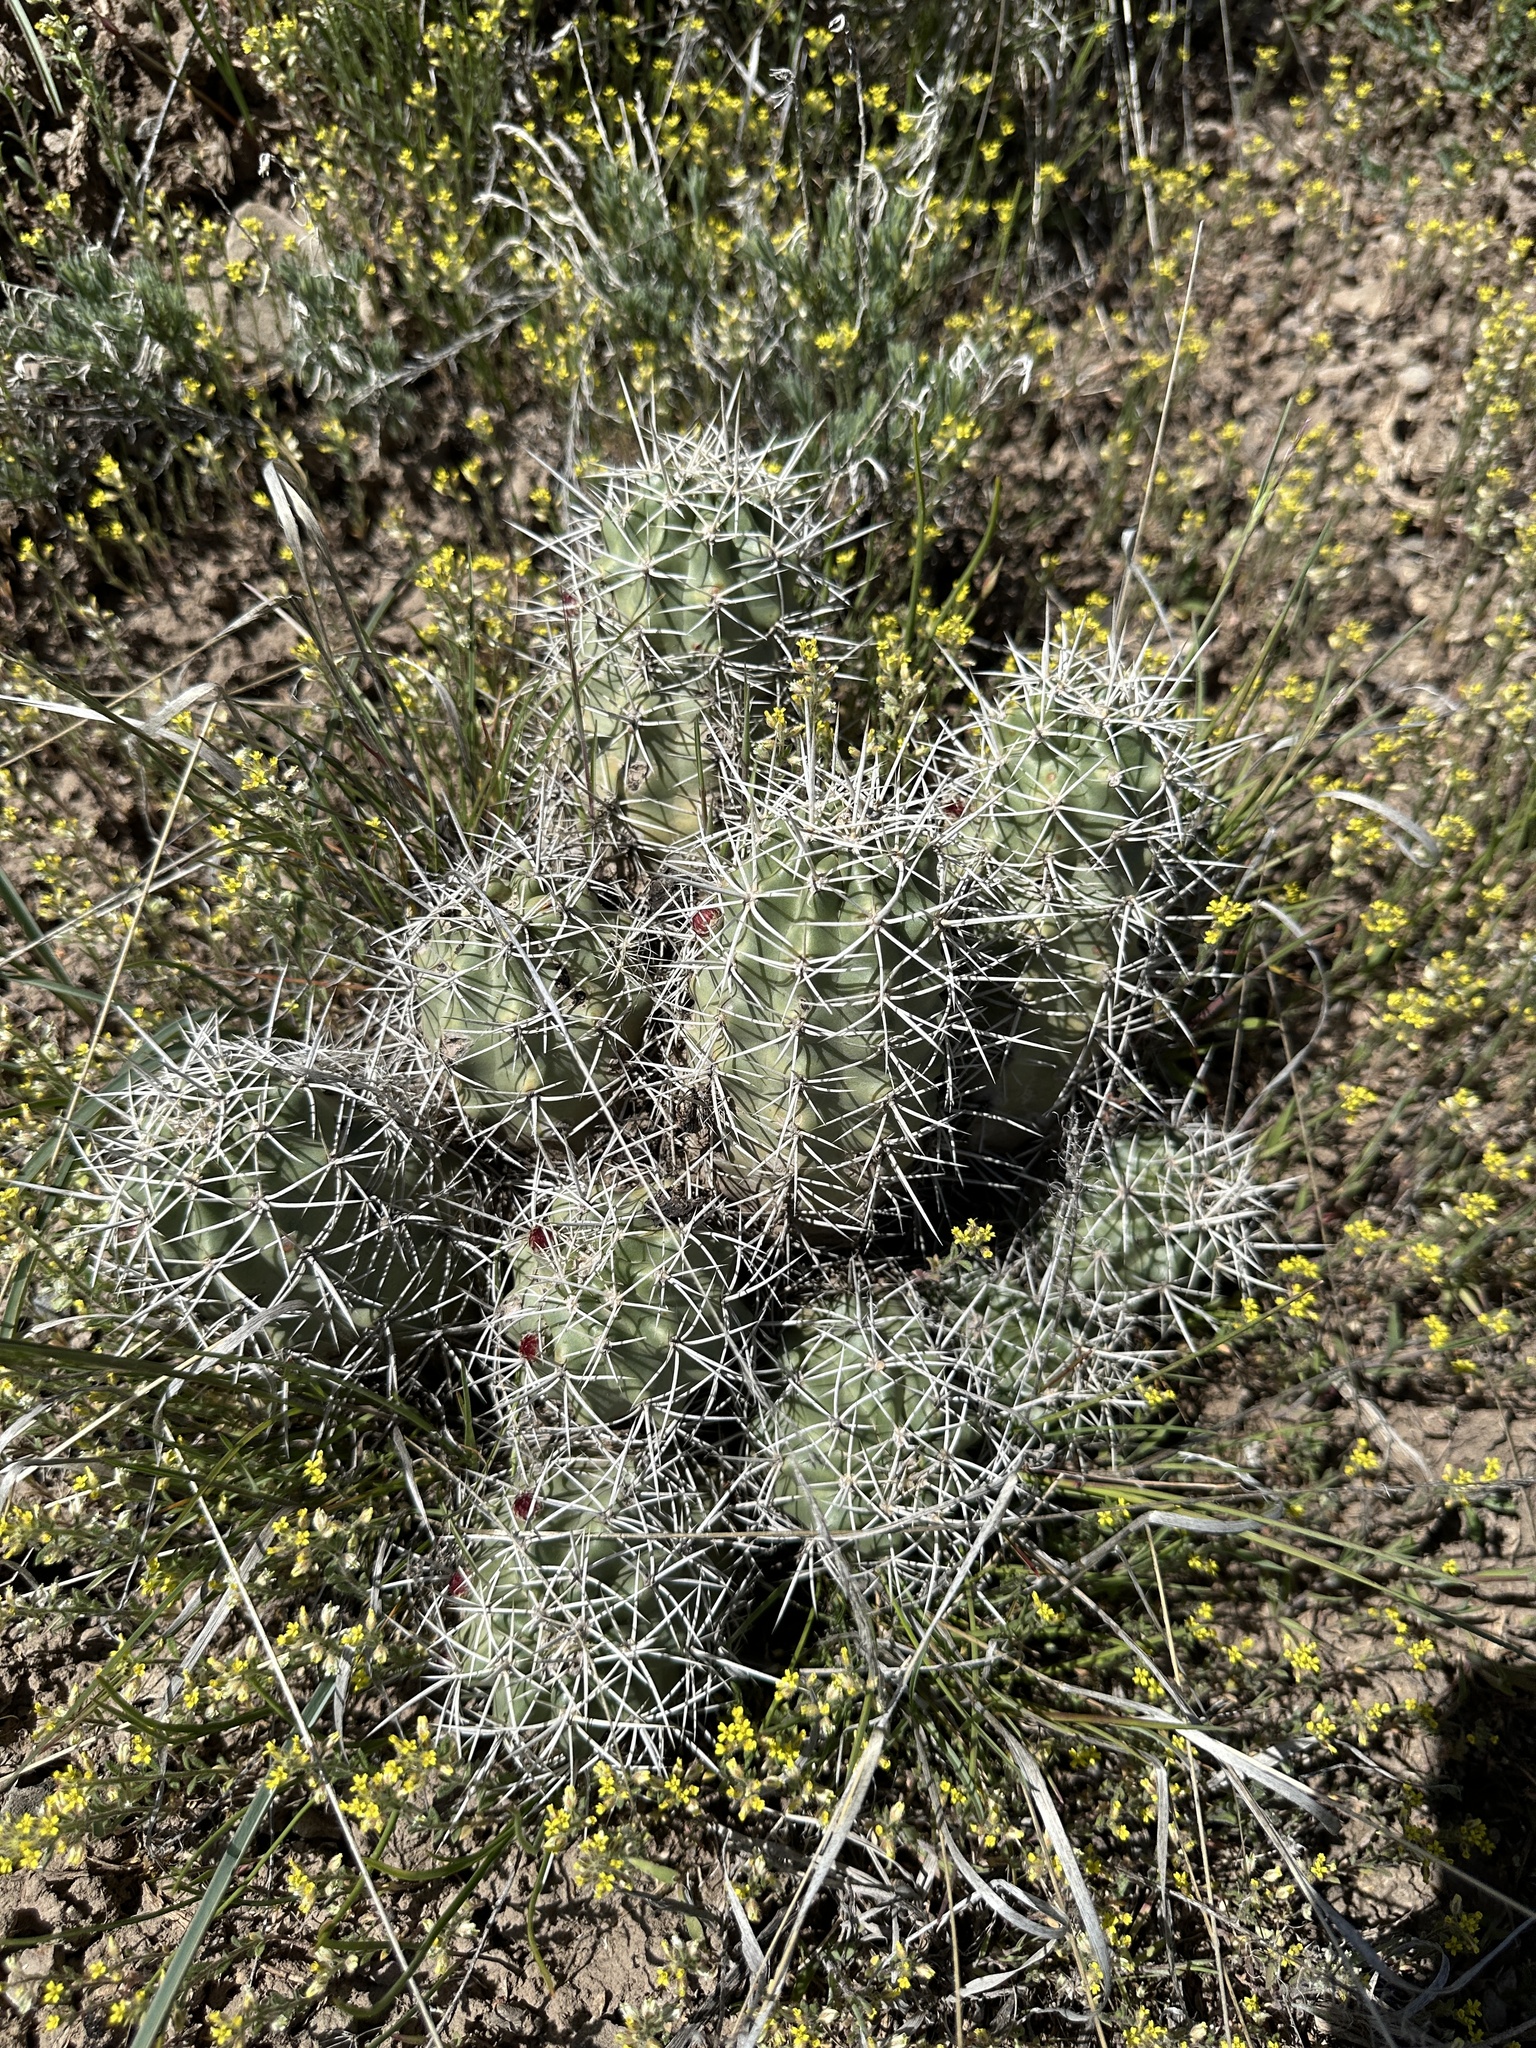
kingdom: Plantae
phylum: Tracheophyta
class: Magnoliopsida
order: Caryophyllales
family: Cactaceae
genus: Echinocereus
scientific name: Echinocereus triglochidiatus
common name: Claretcup hedgehog
